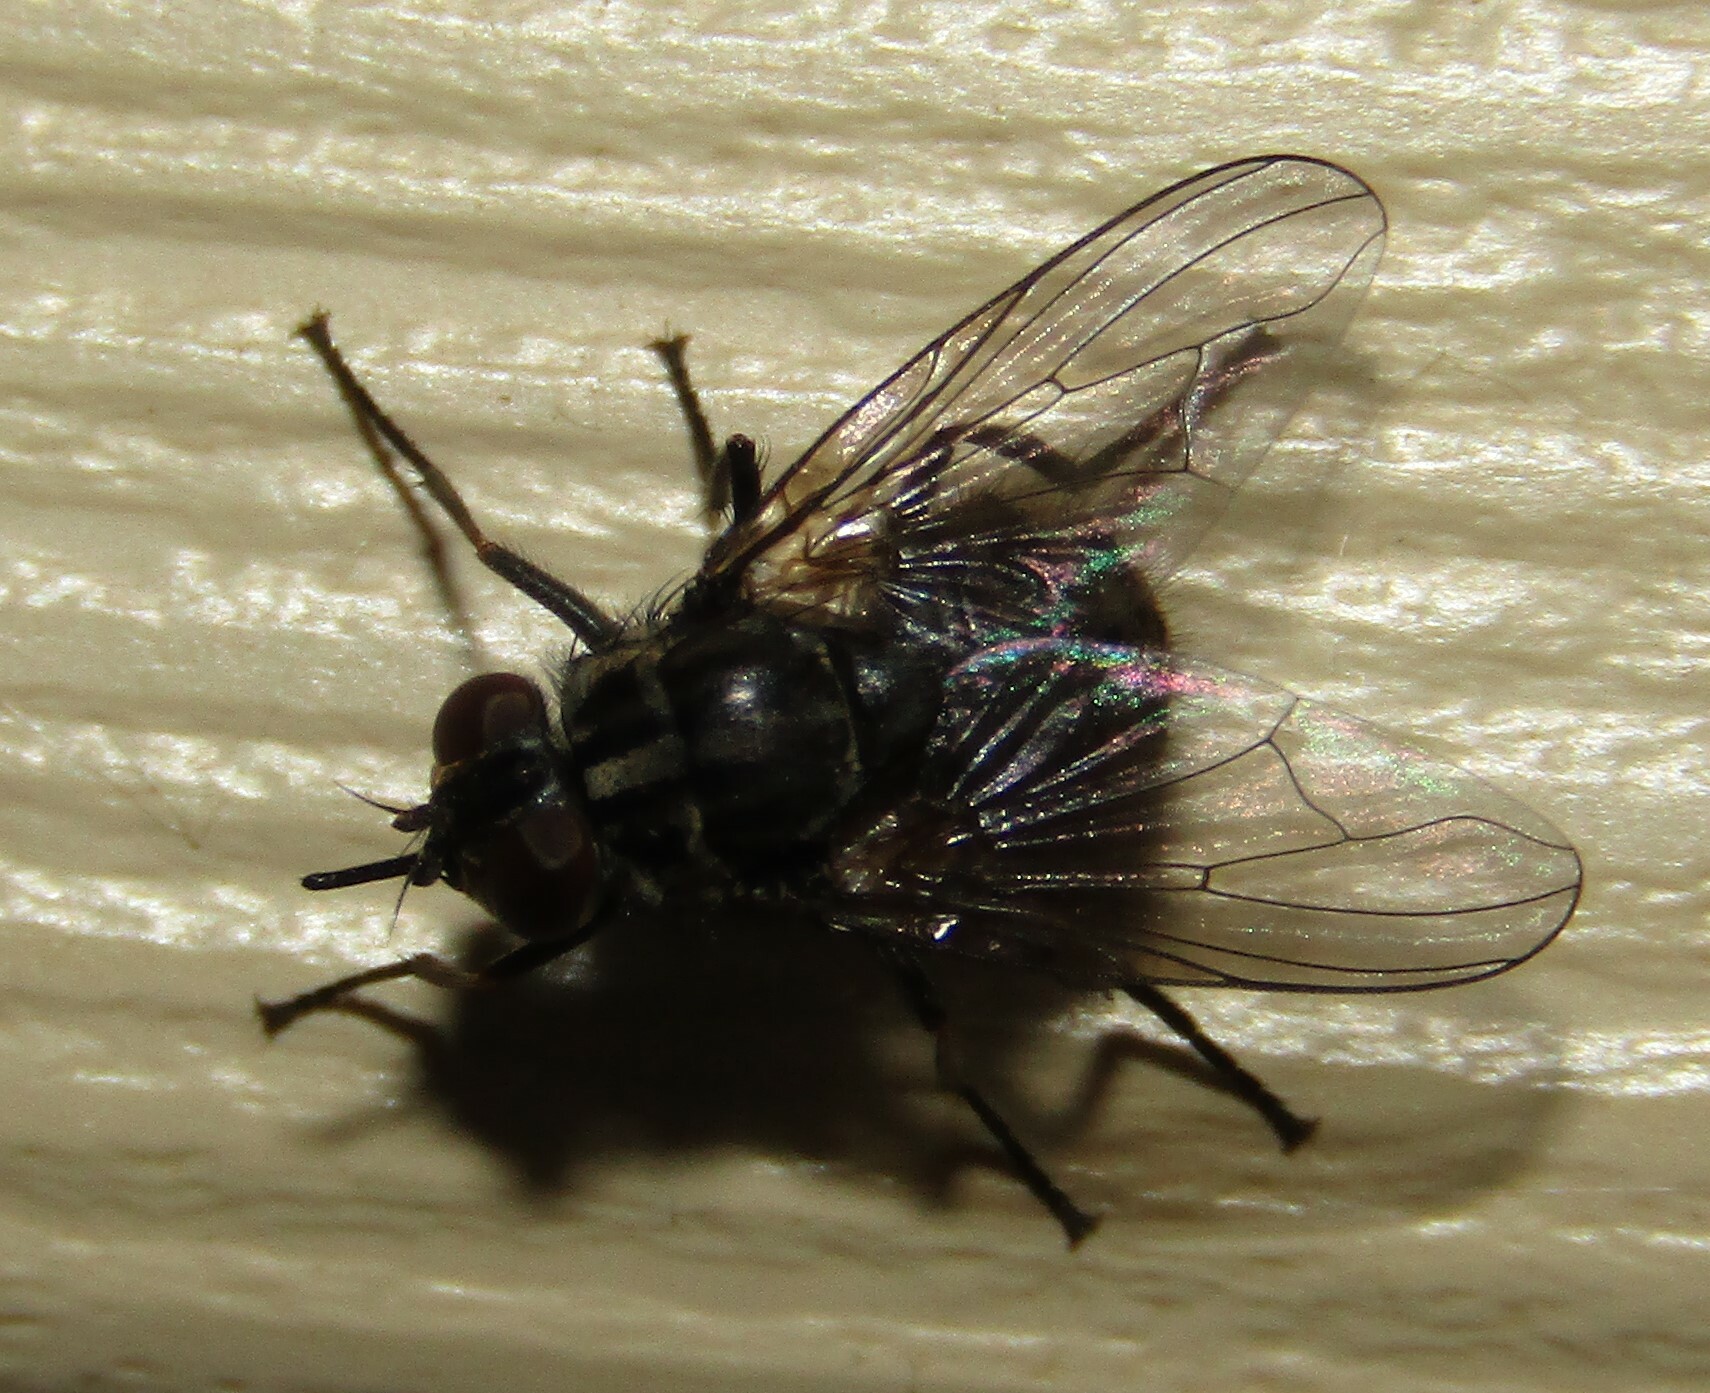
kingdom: Animalia
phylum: Arthropoda
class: Insecta
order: Diptera
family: Muscidae
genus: Stomoxys
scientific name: Stomoxys calcitrans
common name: Stable fly
